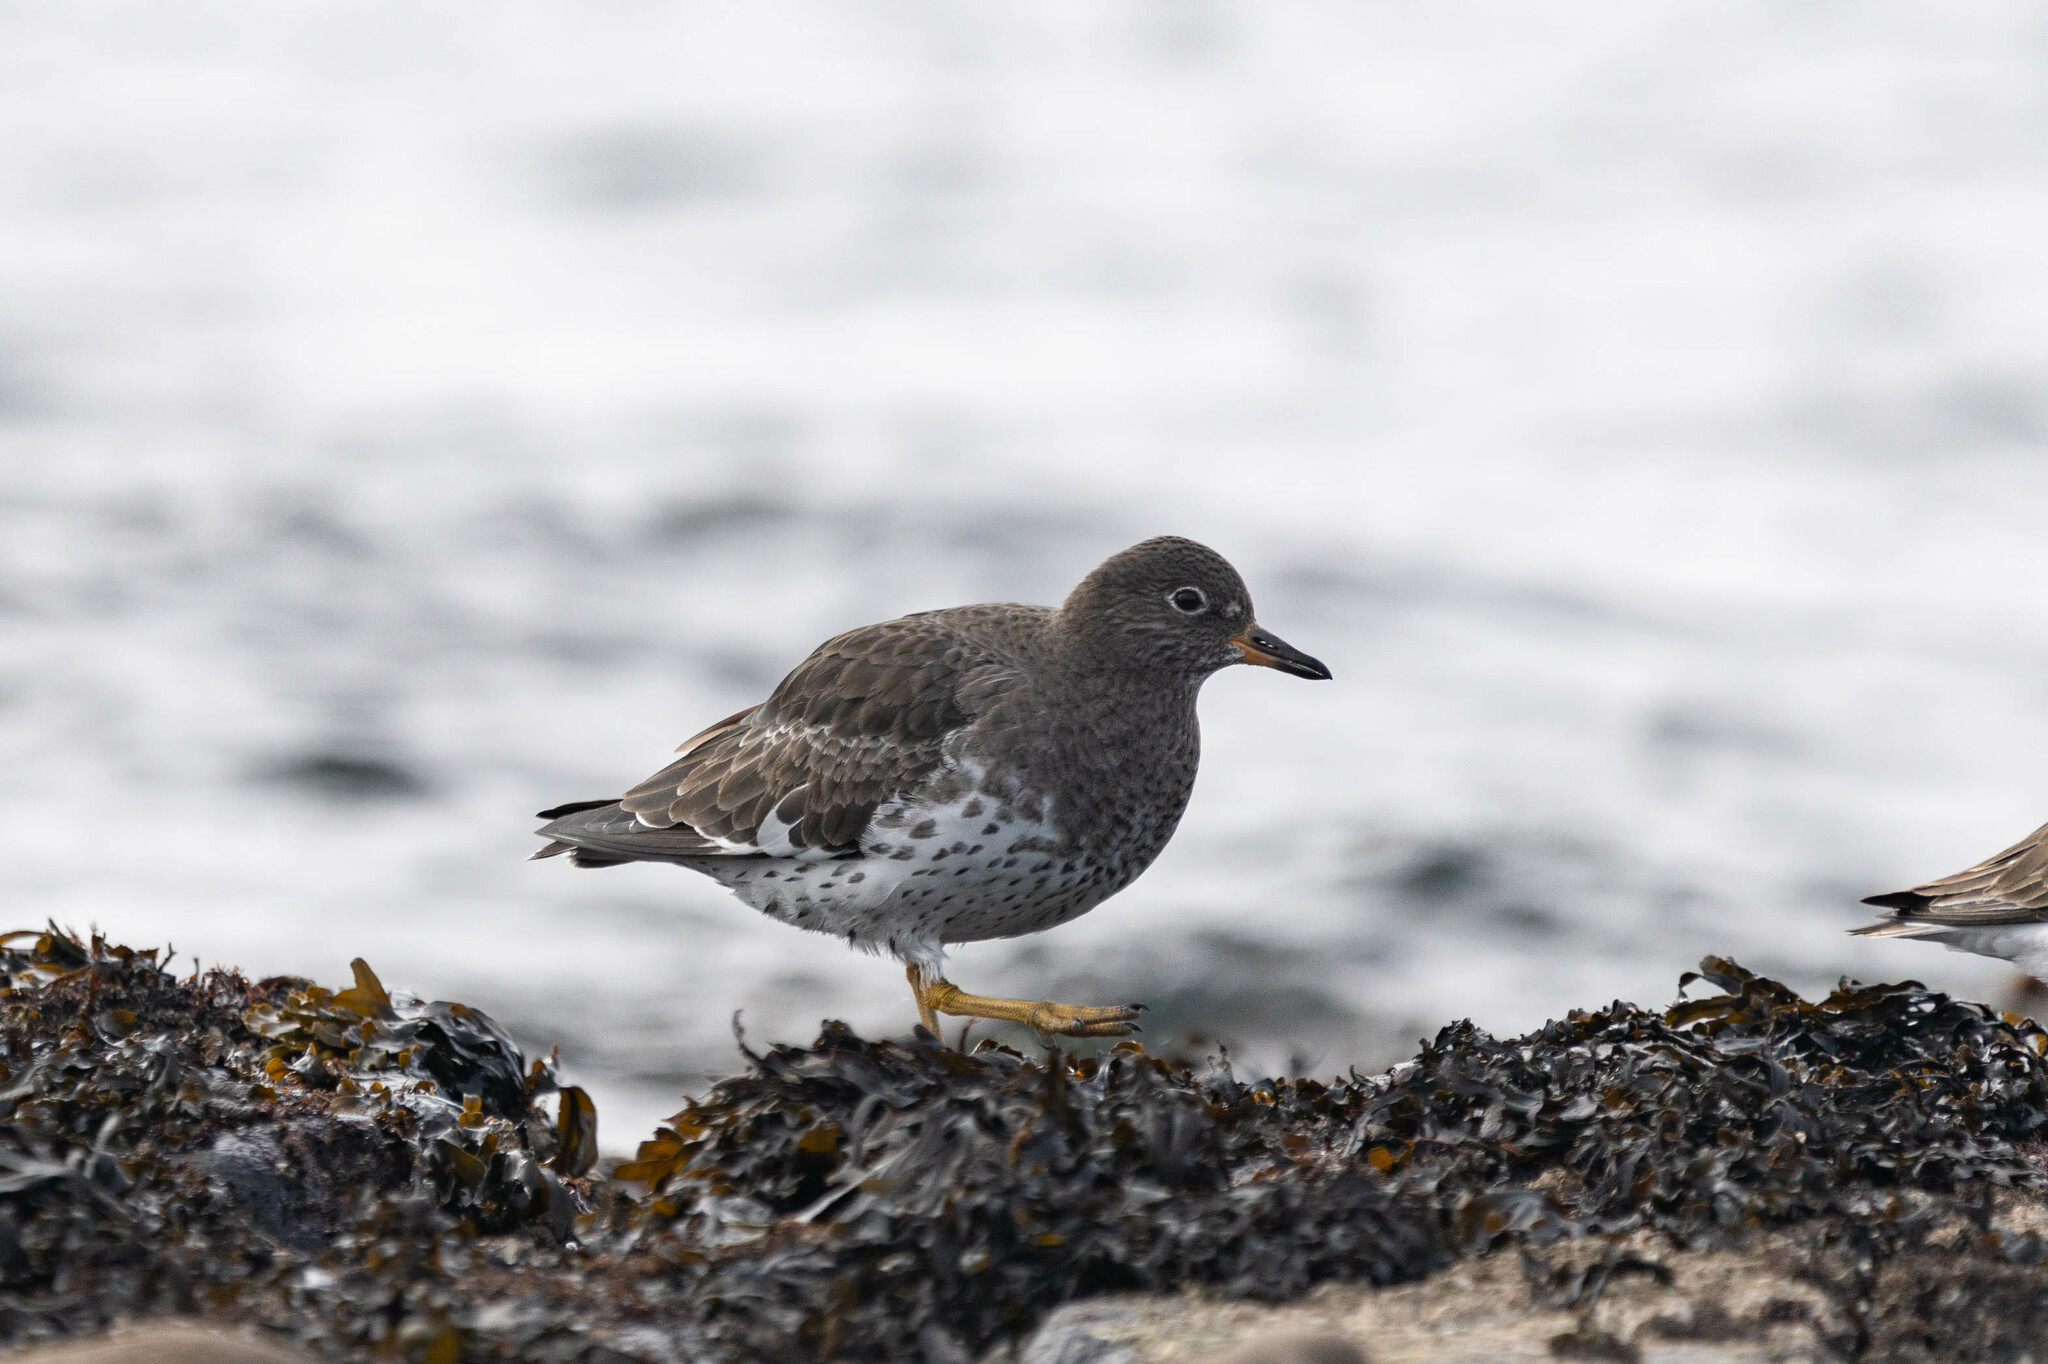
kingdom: Animalia
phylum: Chordata
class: Aves
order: Charadriiformes
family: Scolopacidae
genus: Calidris
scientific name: Calidris virgata
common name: Surfbird
